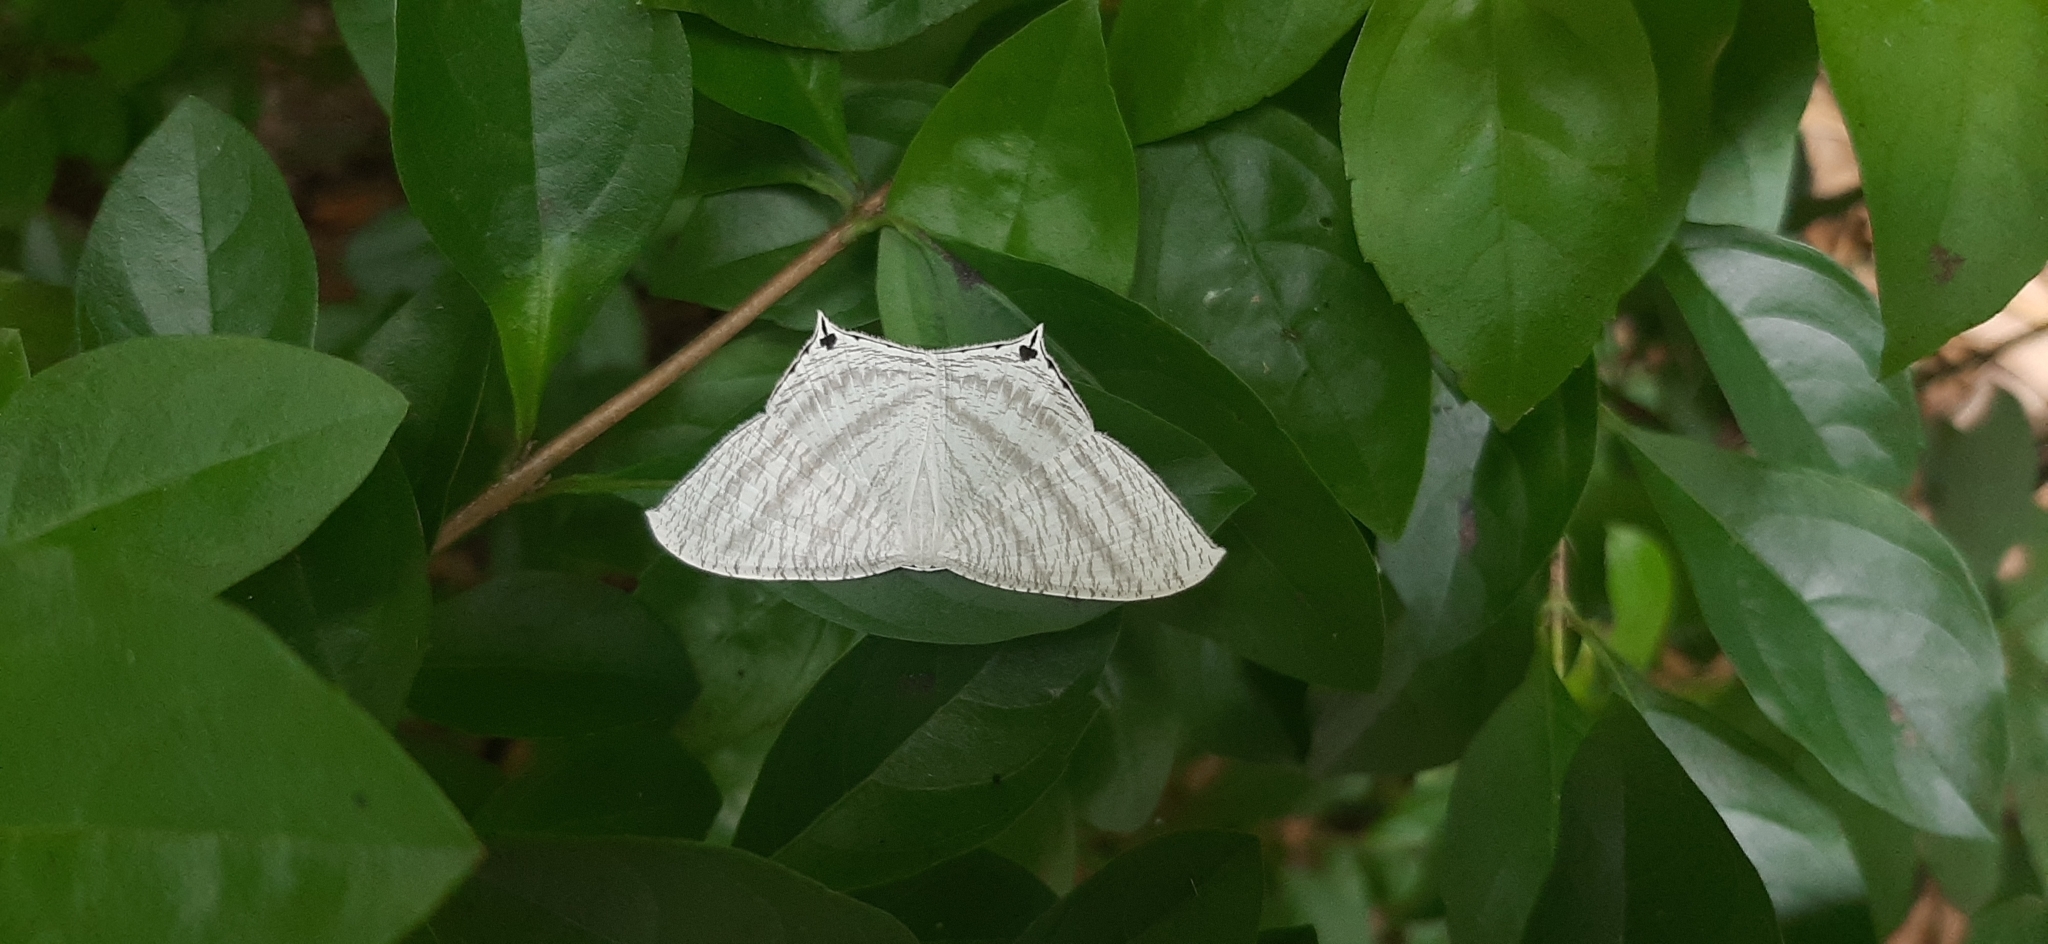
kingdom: Animalia
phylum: Arthropoda
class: Insecta
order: Lepidoptera
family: Uraniidae
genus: Micronia
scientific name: Micronia aculeata
